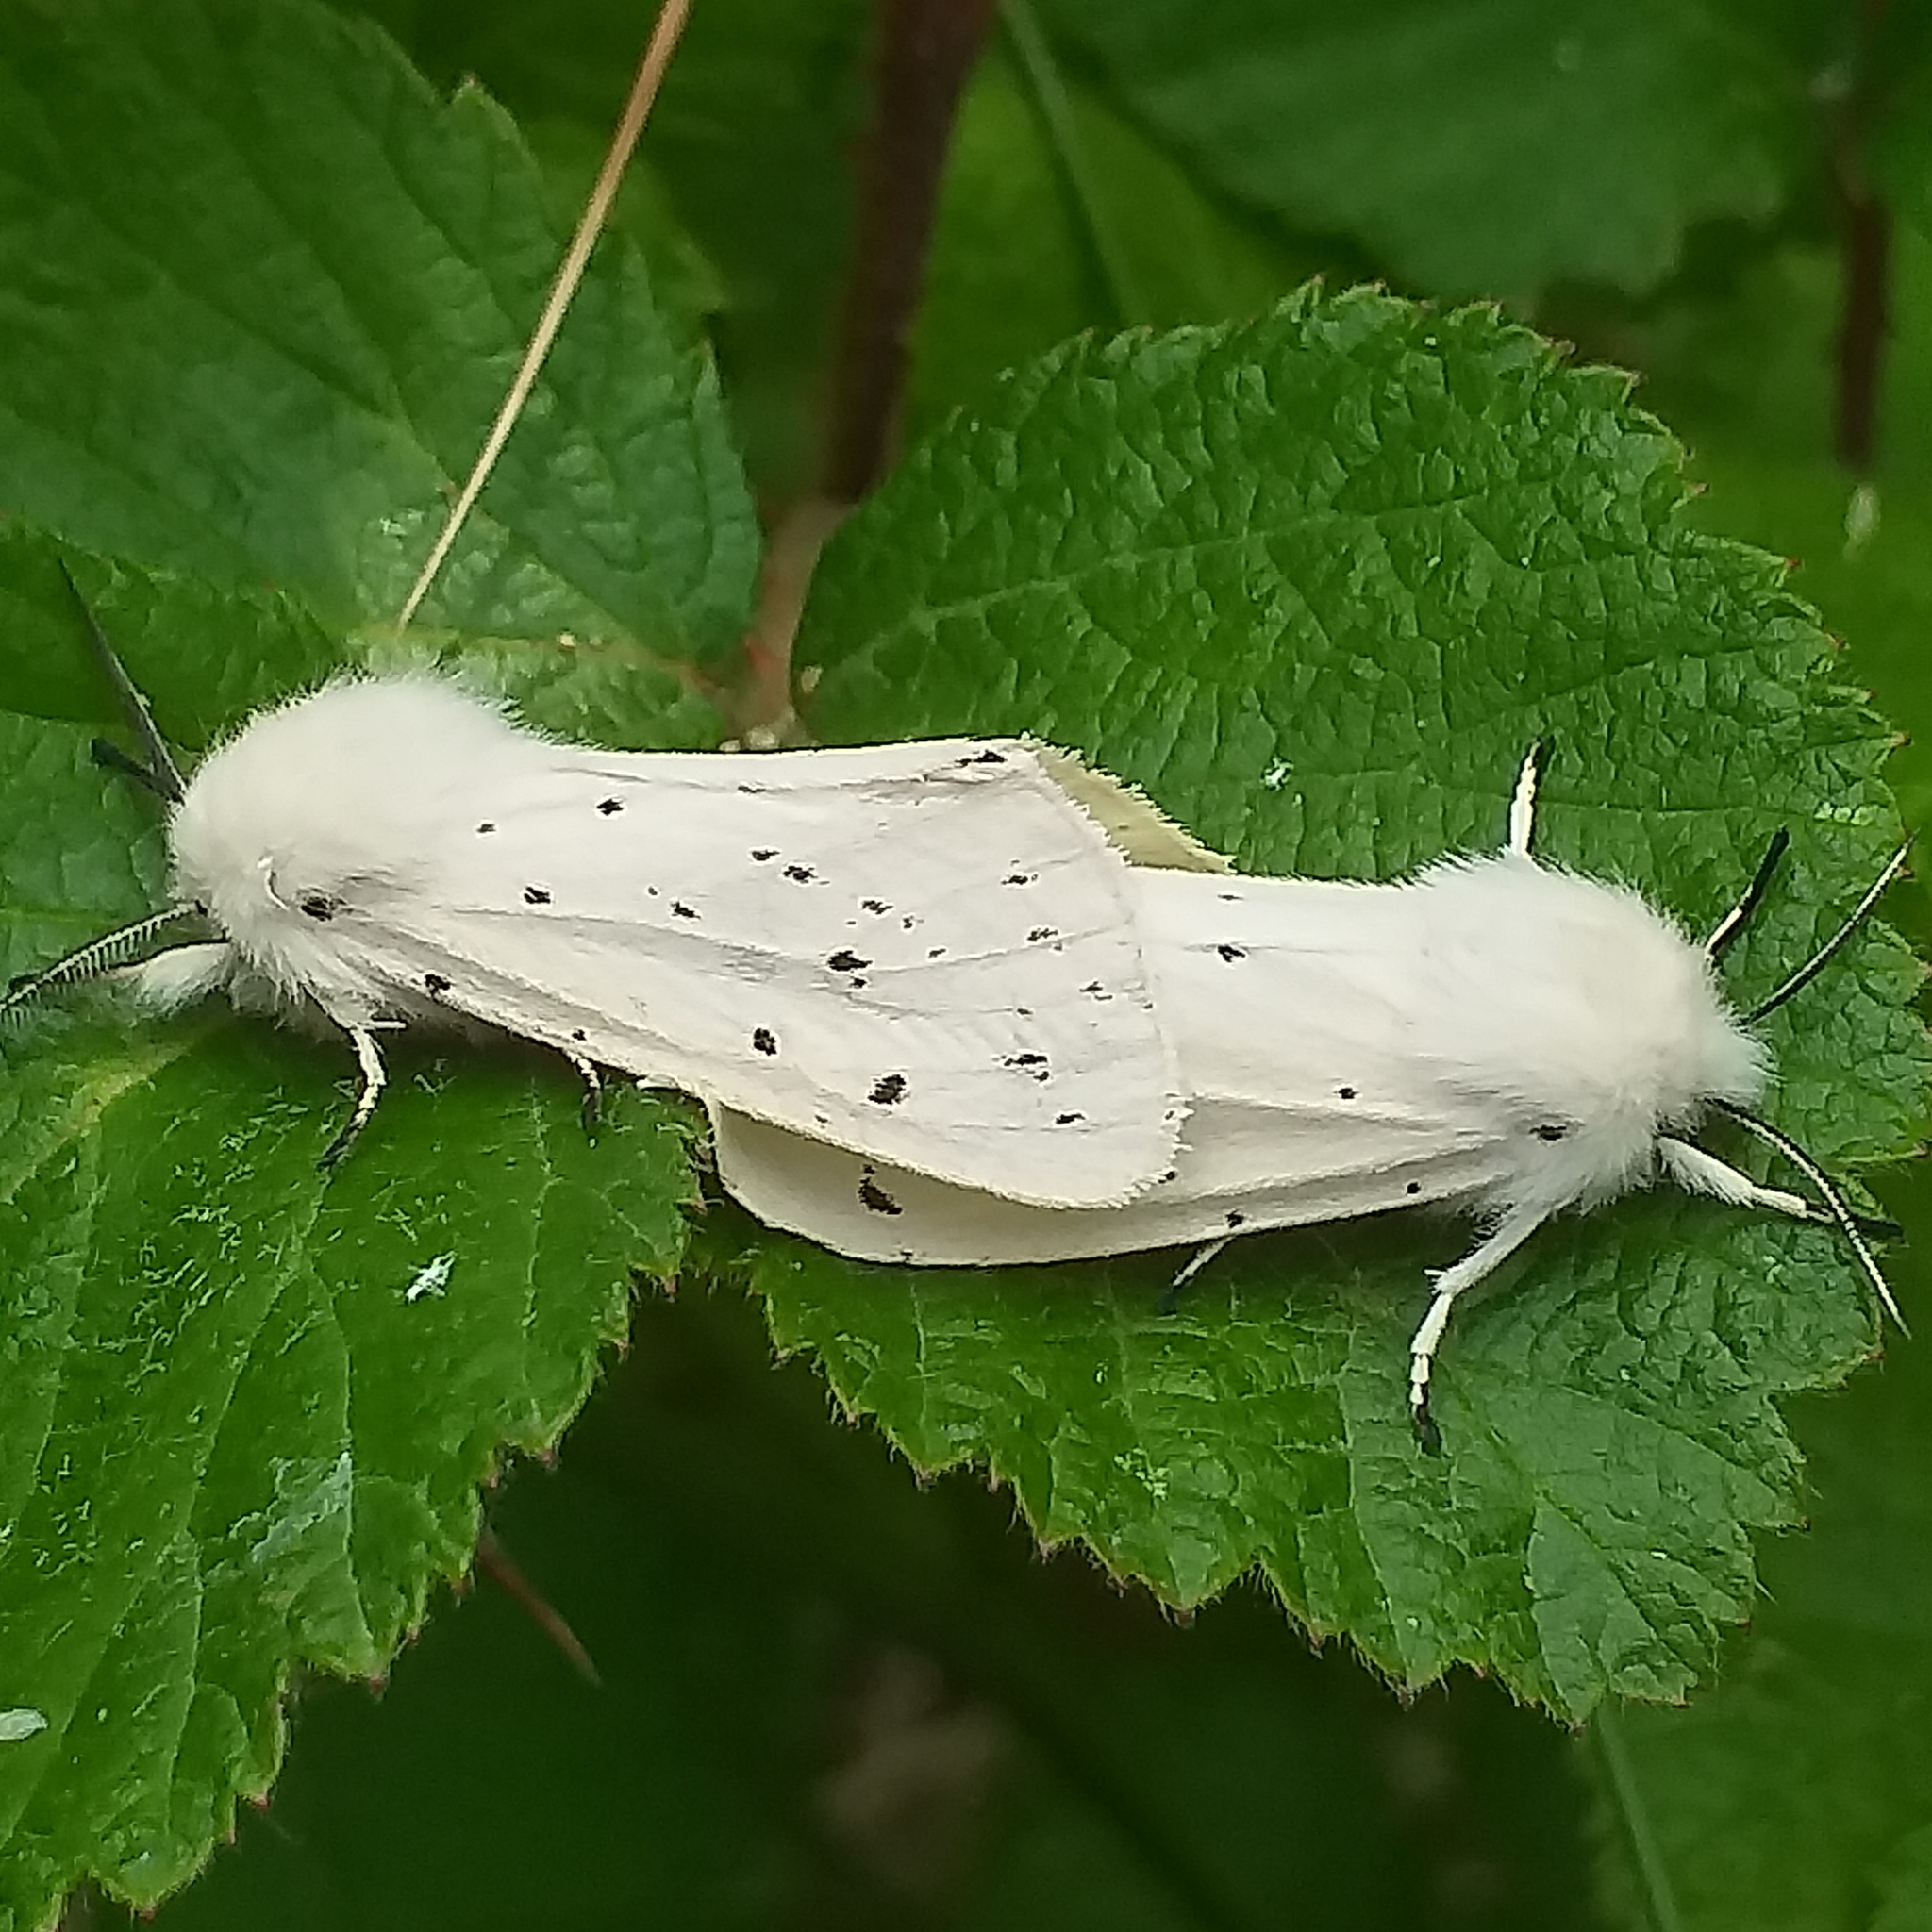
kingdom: Animalia
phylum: Arthropoda
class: Insecta
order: Lepidoptera
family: Erebidae
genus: Spilosoma
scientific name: Spilosoma lubricipeda
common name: White ermine
